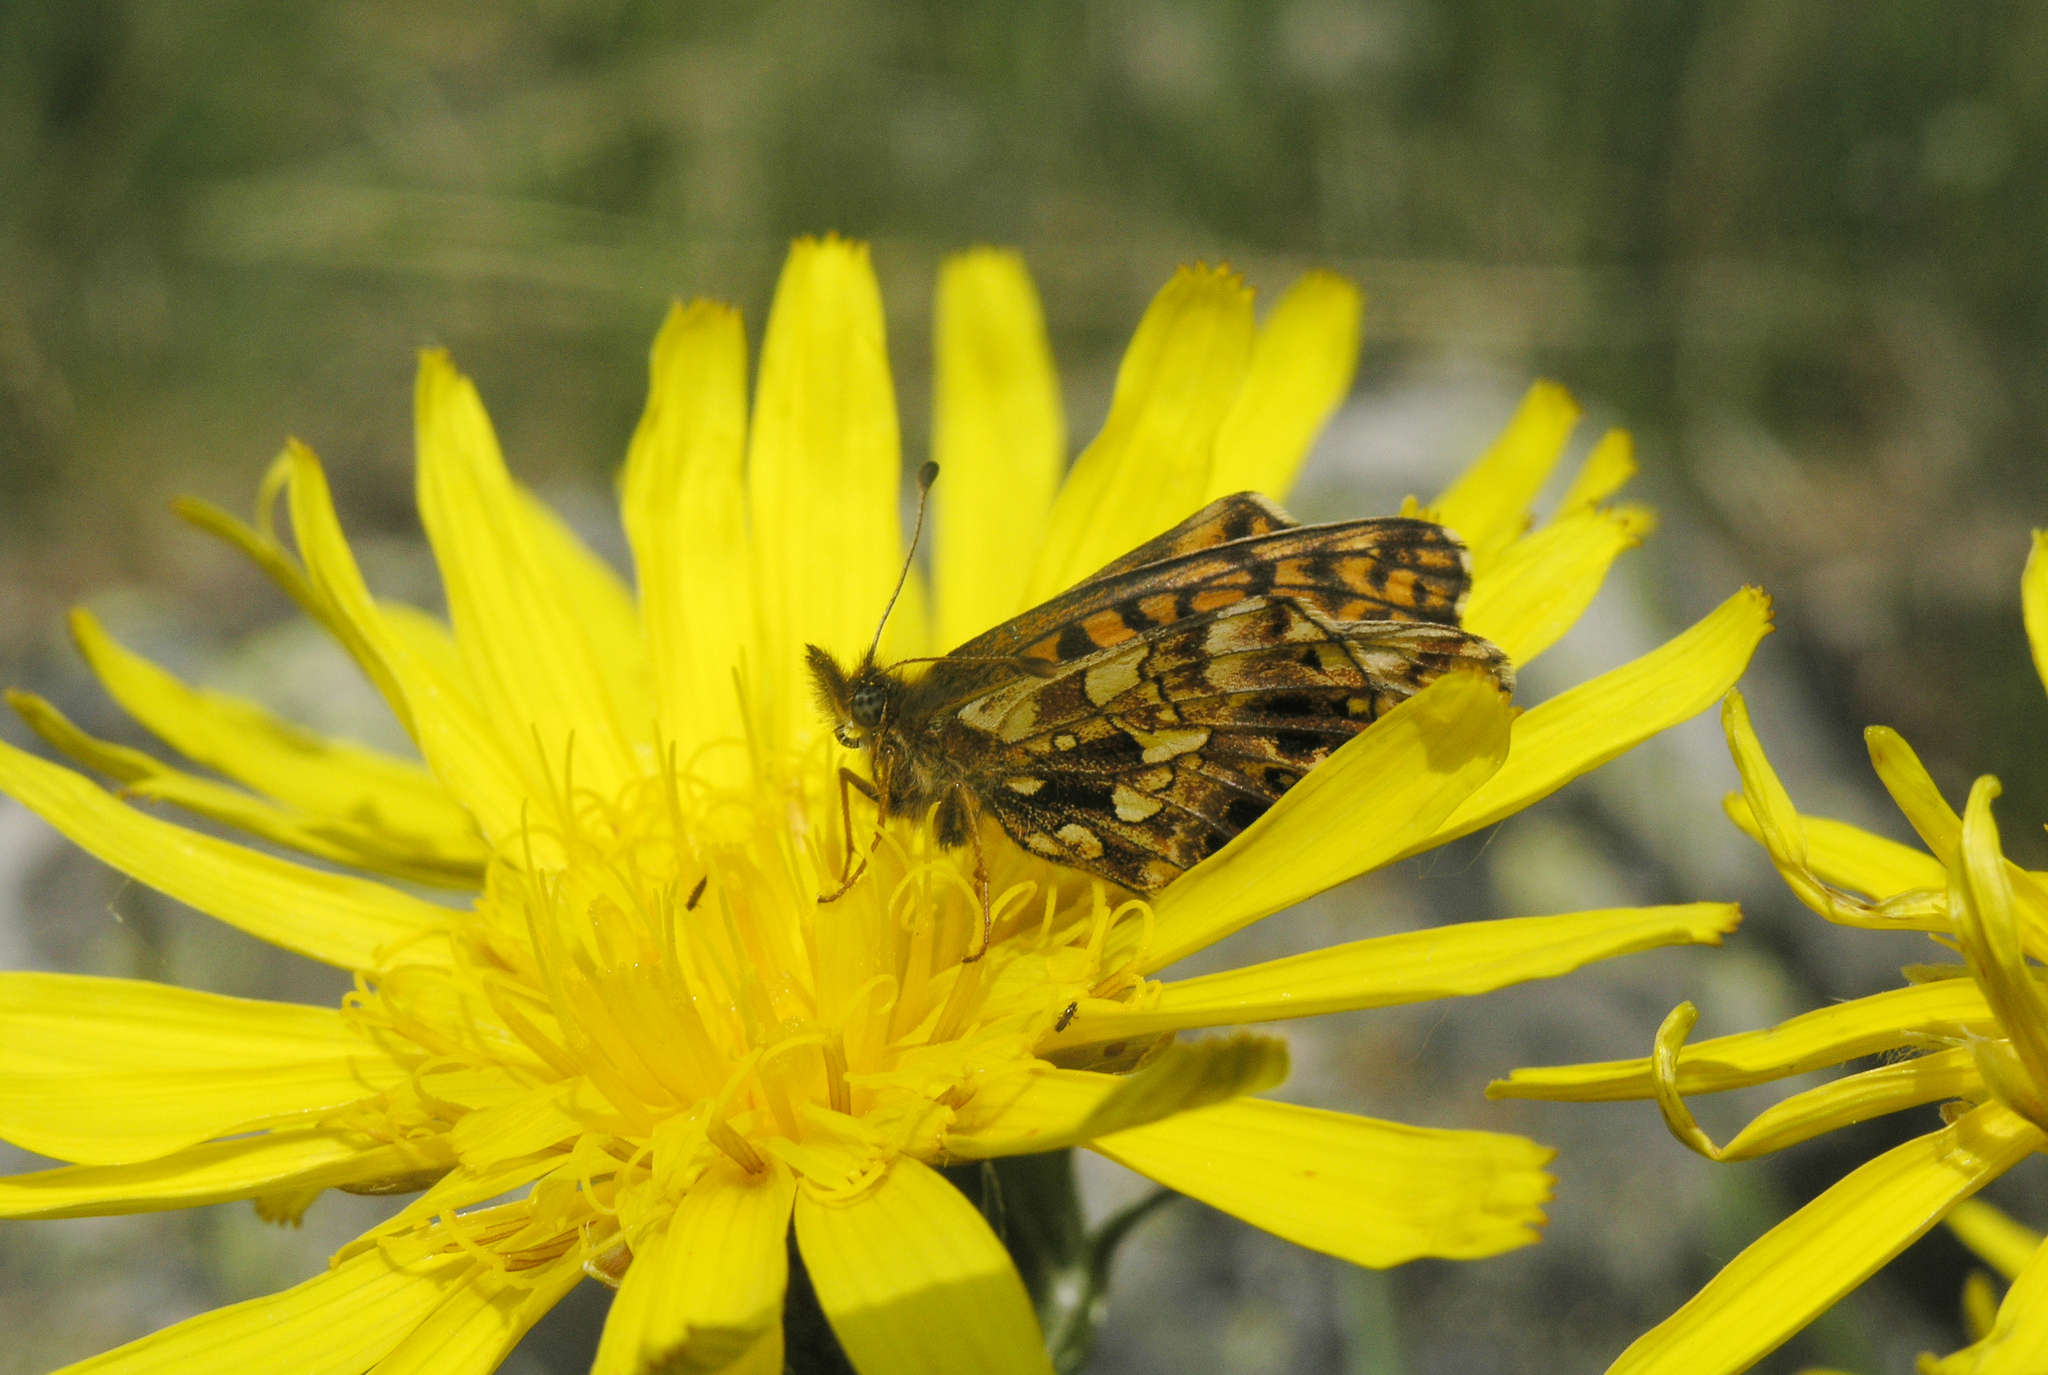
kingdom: Animalia
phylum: Arthropoda
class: Insecta
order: Lepidoptera
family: Nymphalidae
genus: Boloria
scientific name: Boloria dia
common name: Weaver's fritillary
